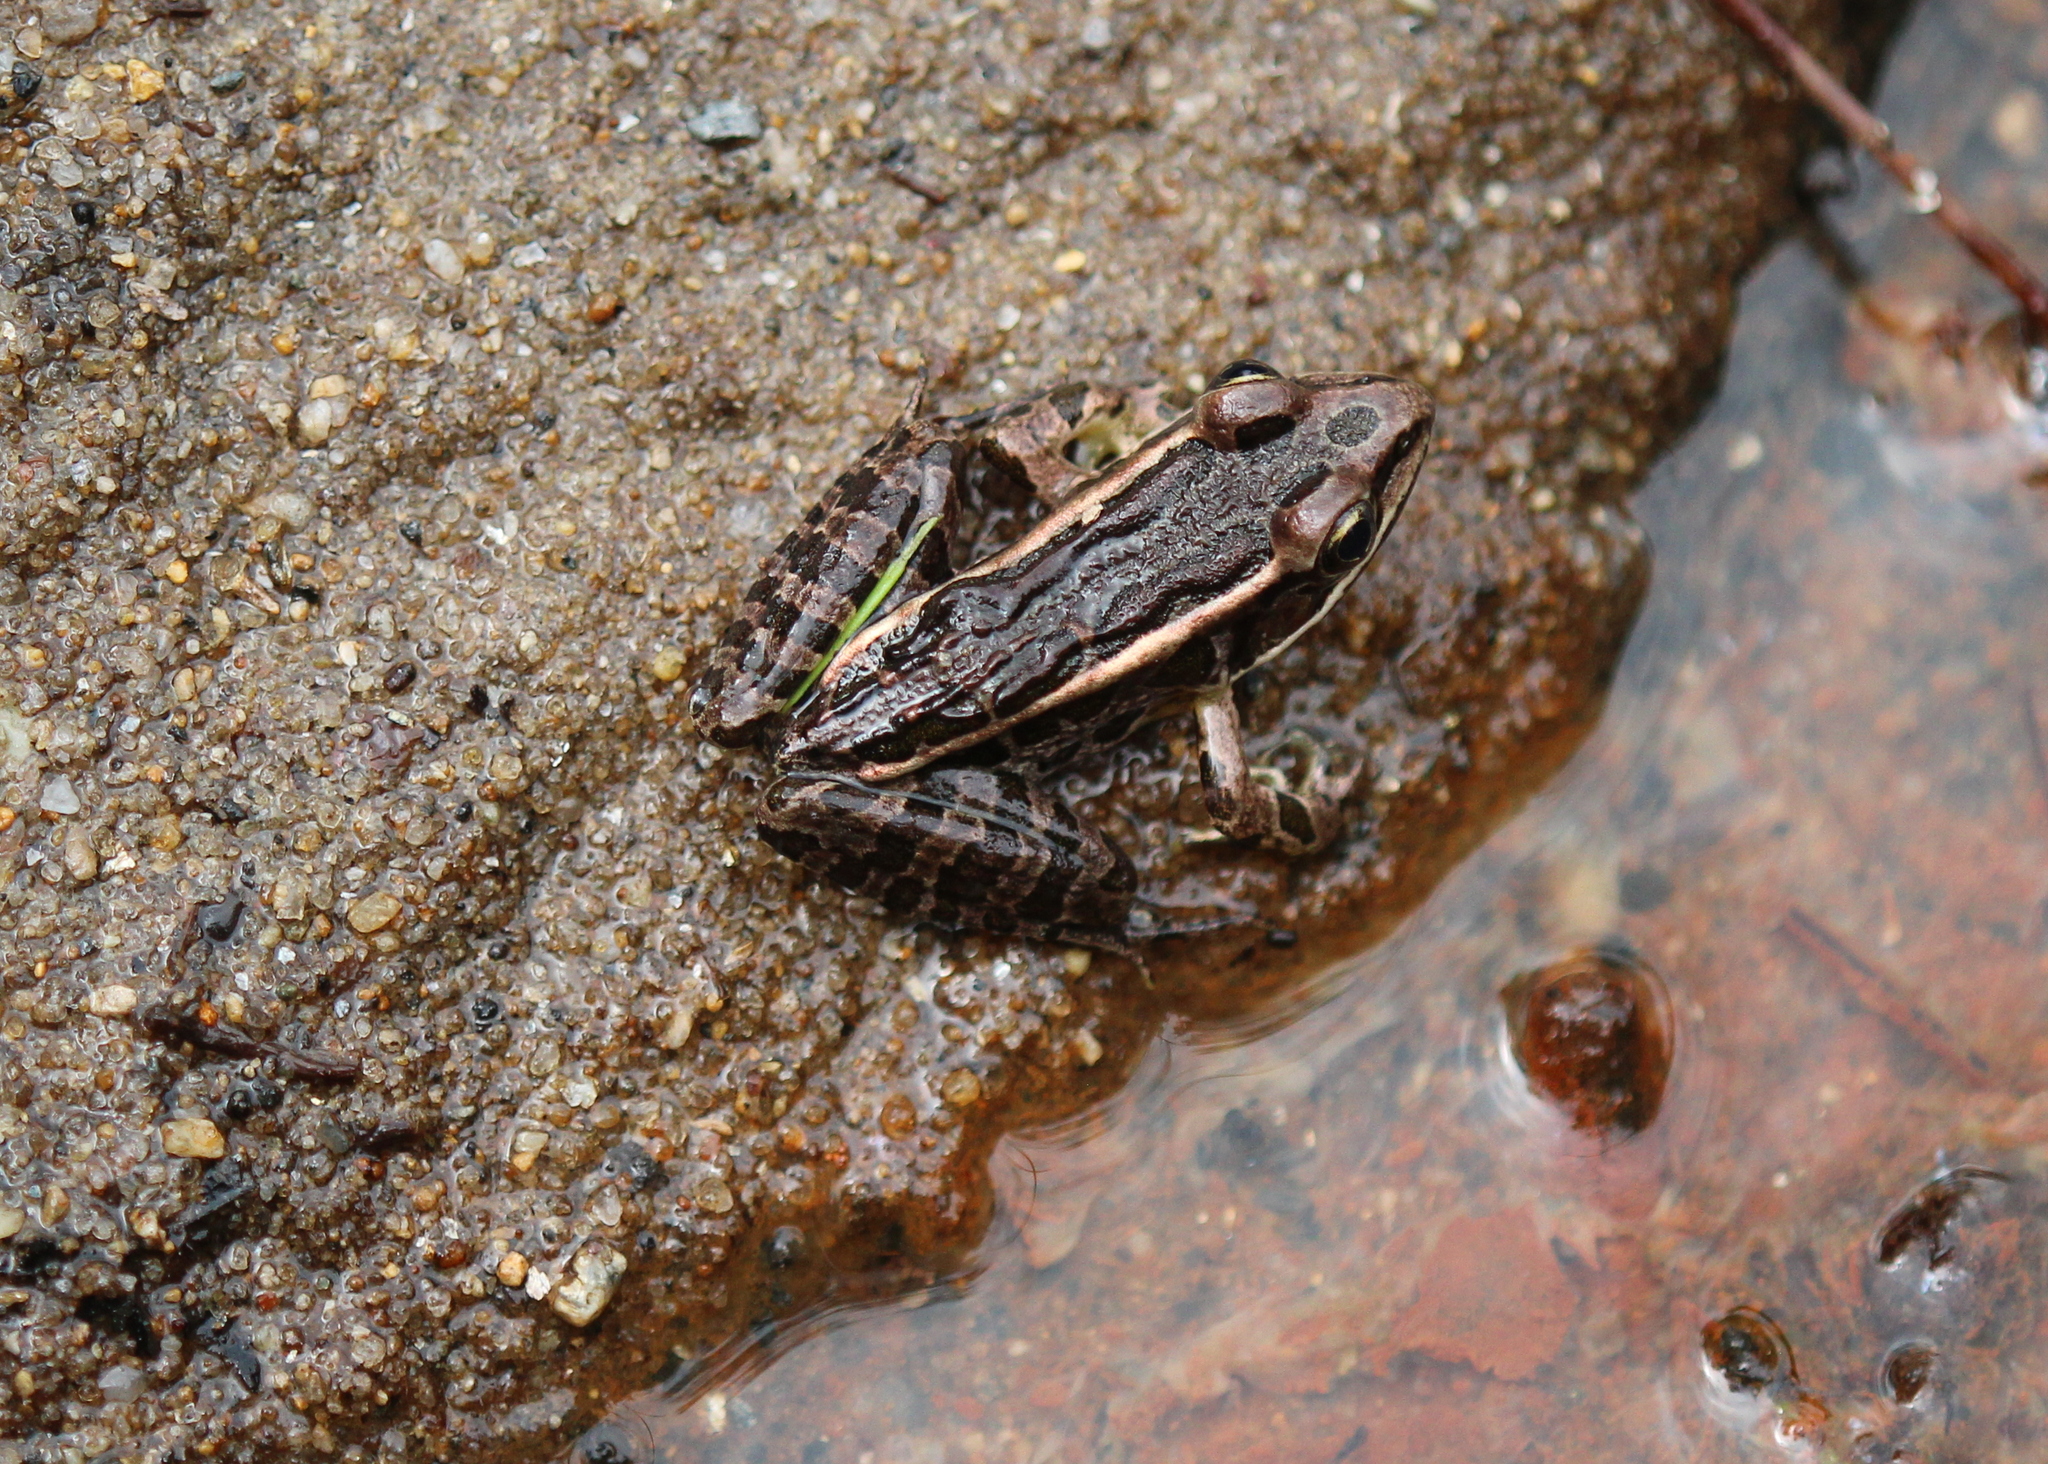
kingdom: Animalia
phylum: Chordata
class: Amphibia
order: Anura
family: Ranidae
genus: Lithobates
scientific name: Lithobates palustris
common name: Pickerel frog
